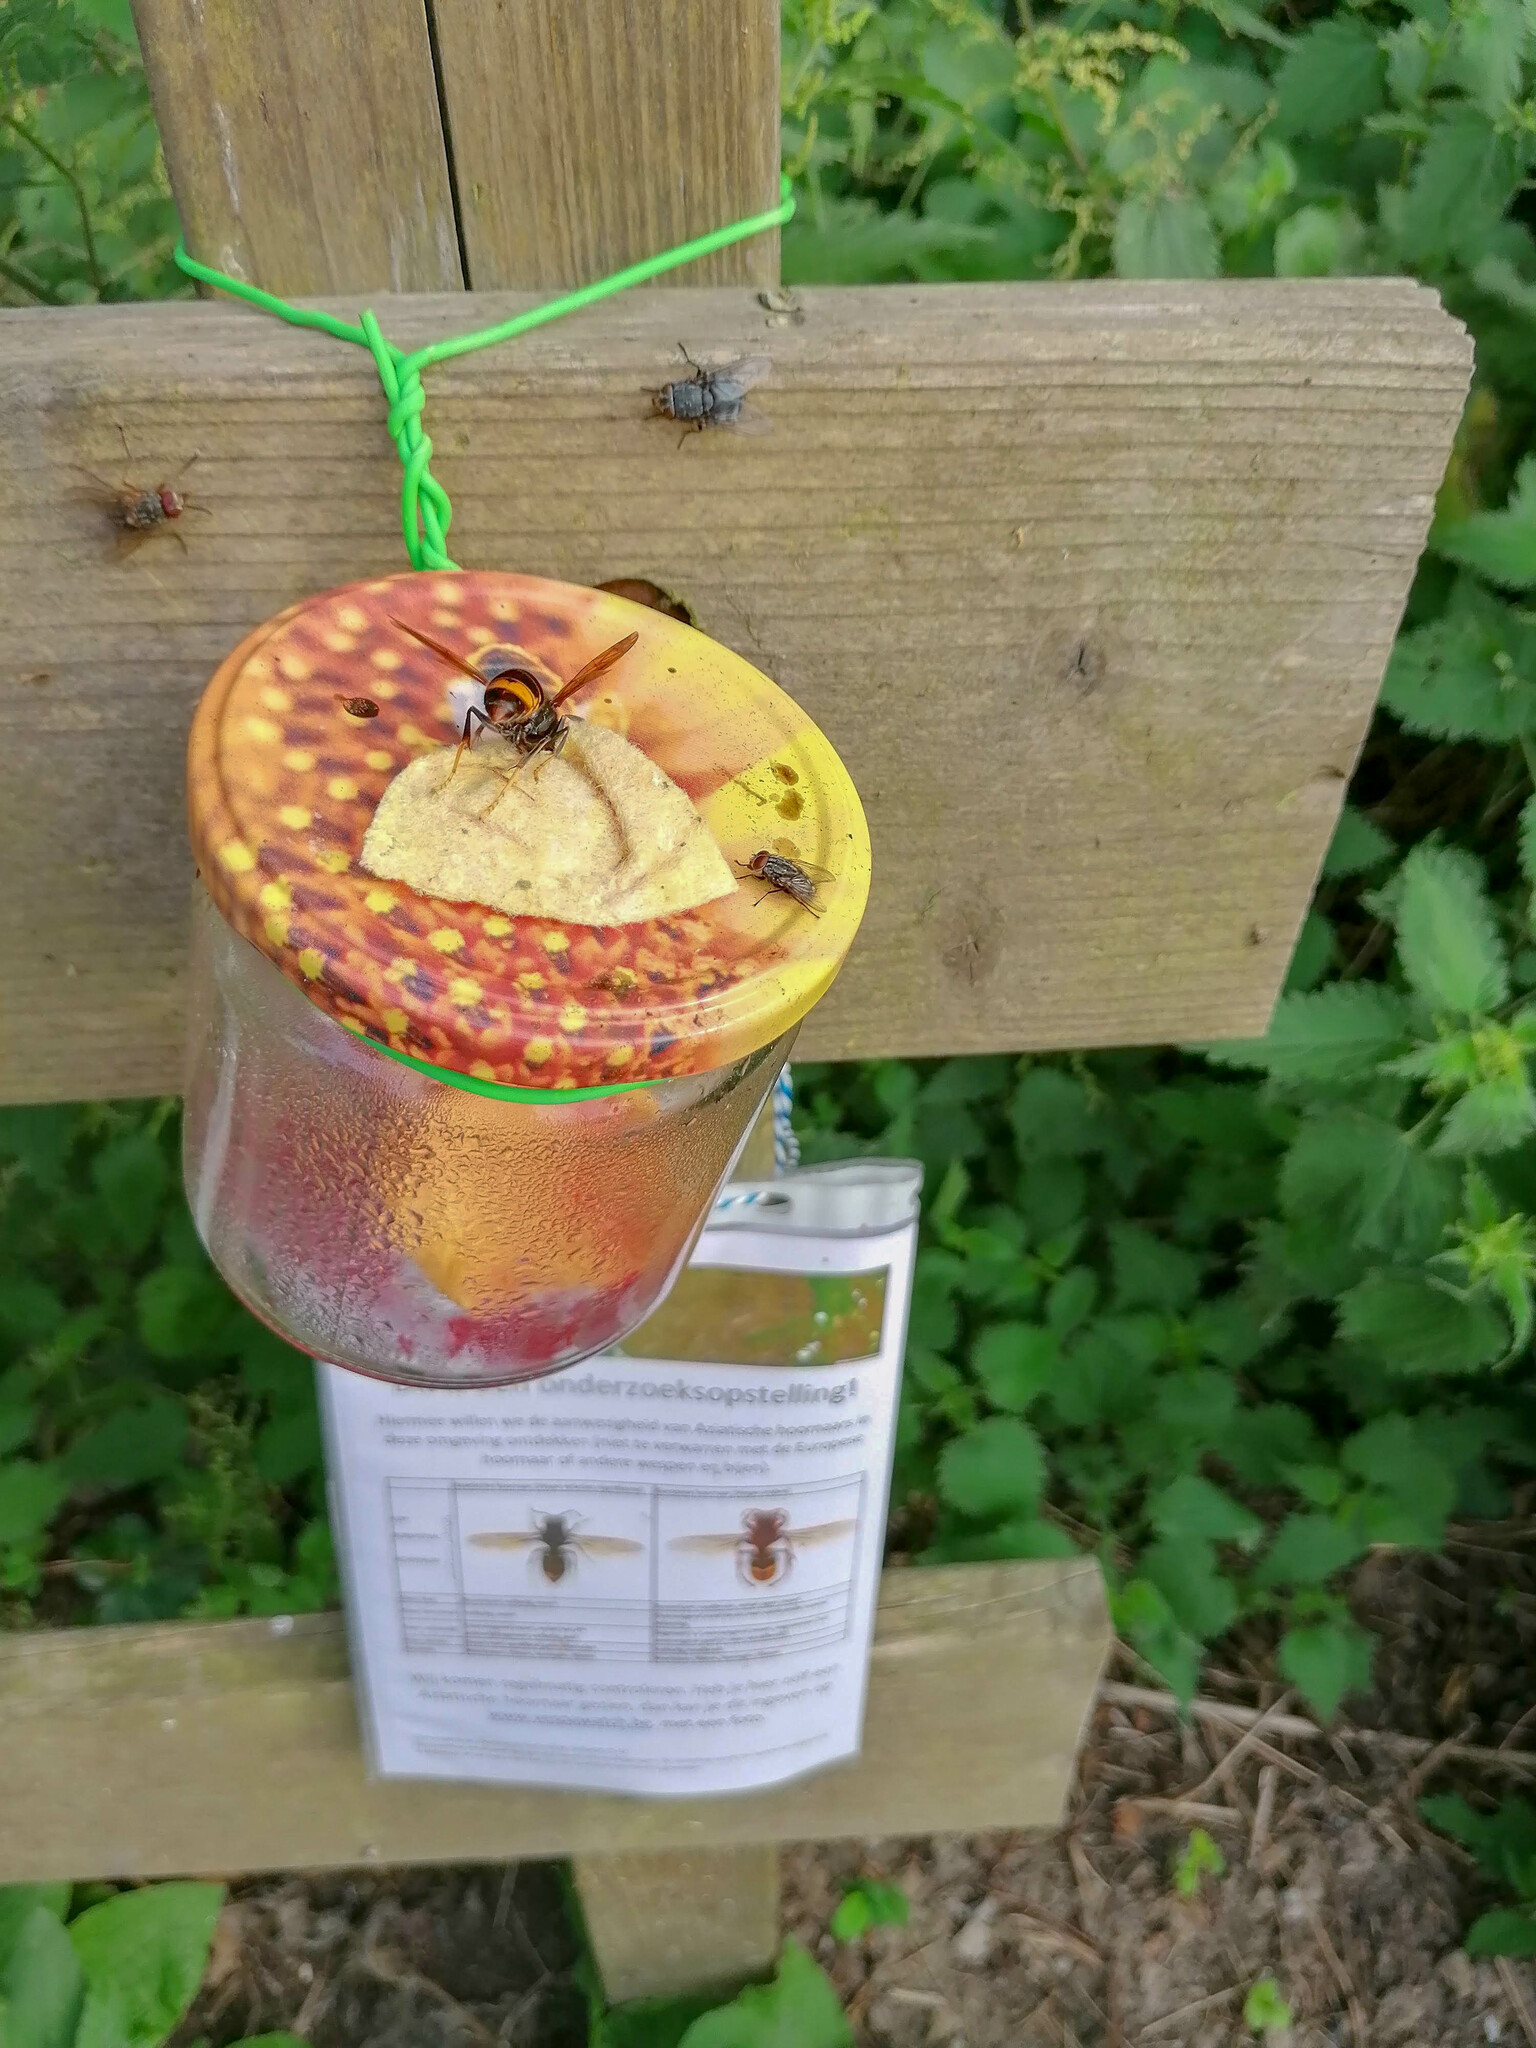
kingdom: Animalia
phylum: Arthropoda
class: Insecta
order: Hymenoptera
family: Vespidae
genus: Vespa
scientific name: Vespa velutina
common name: Asian hornet
